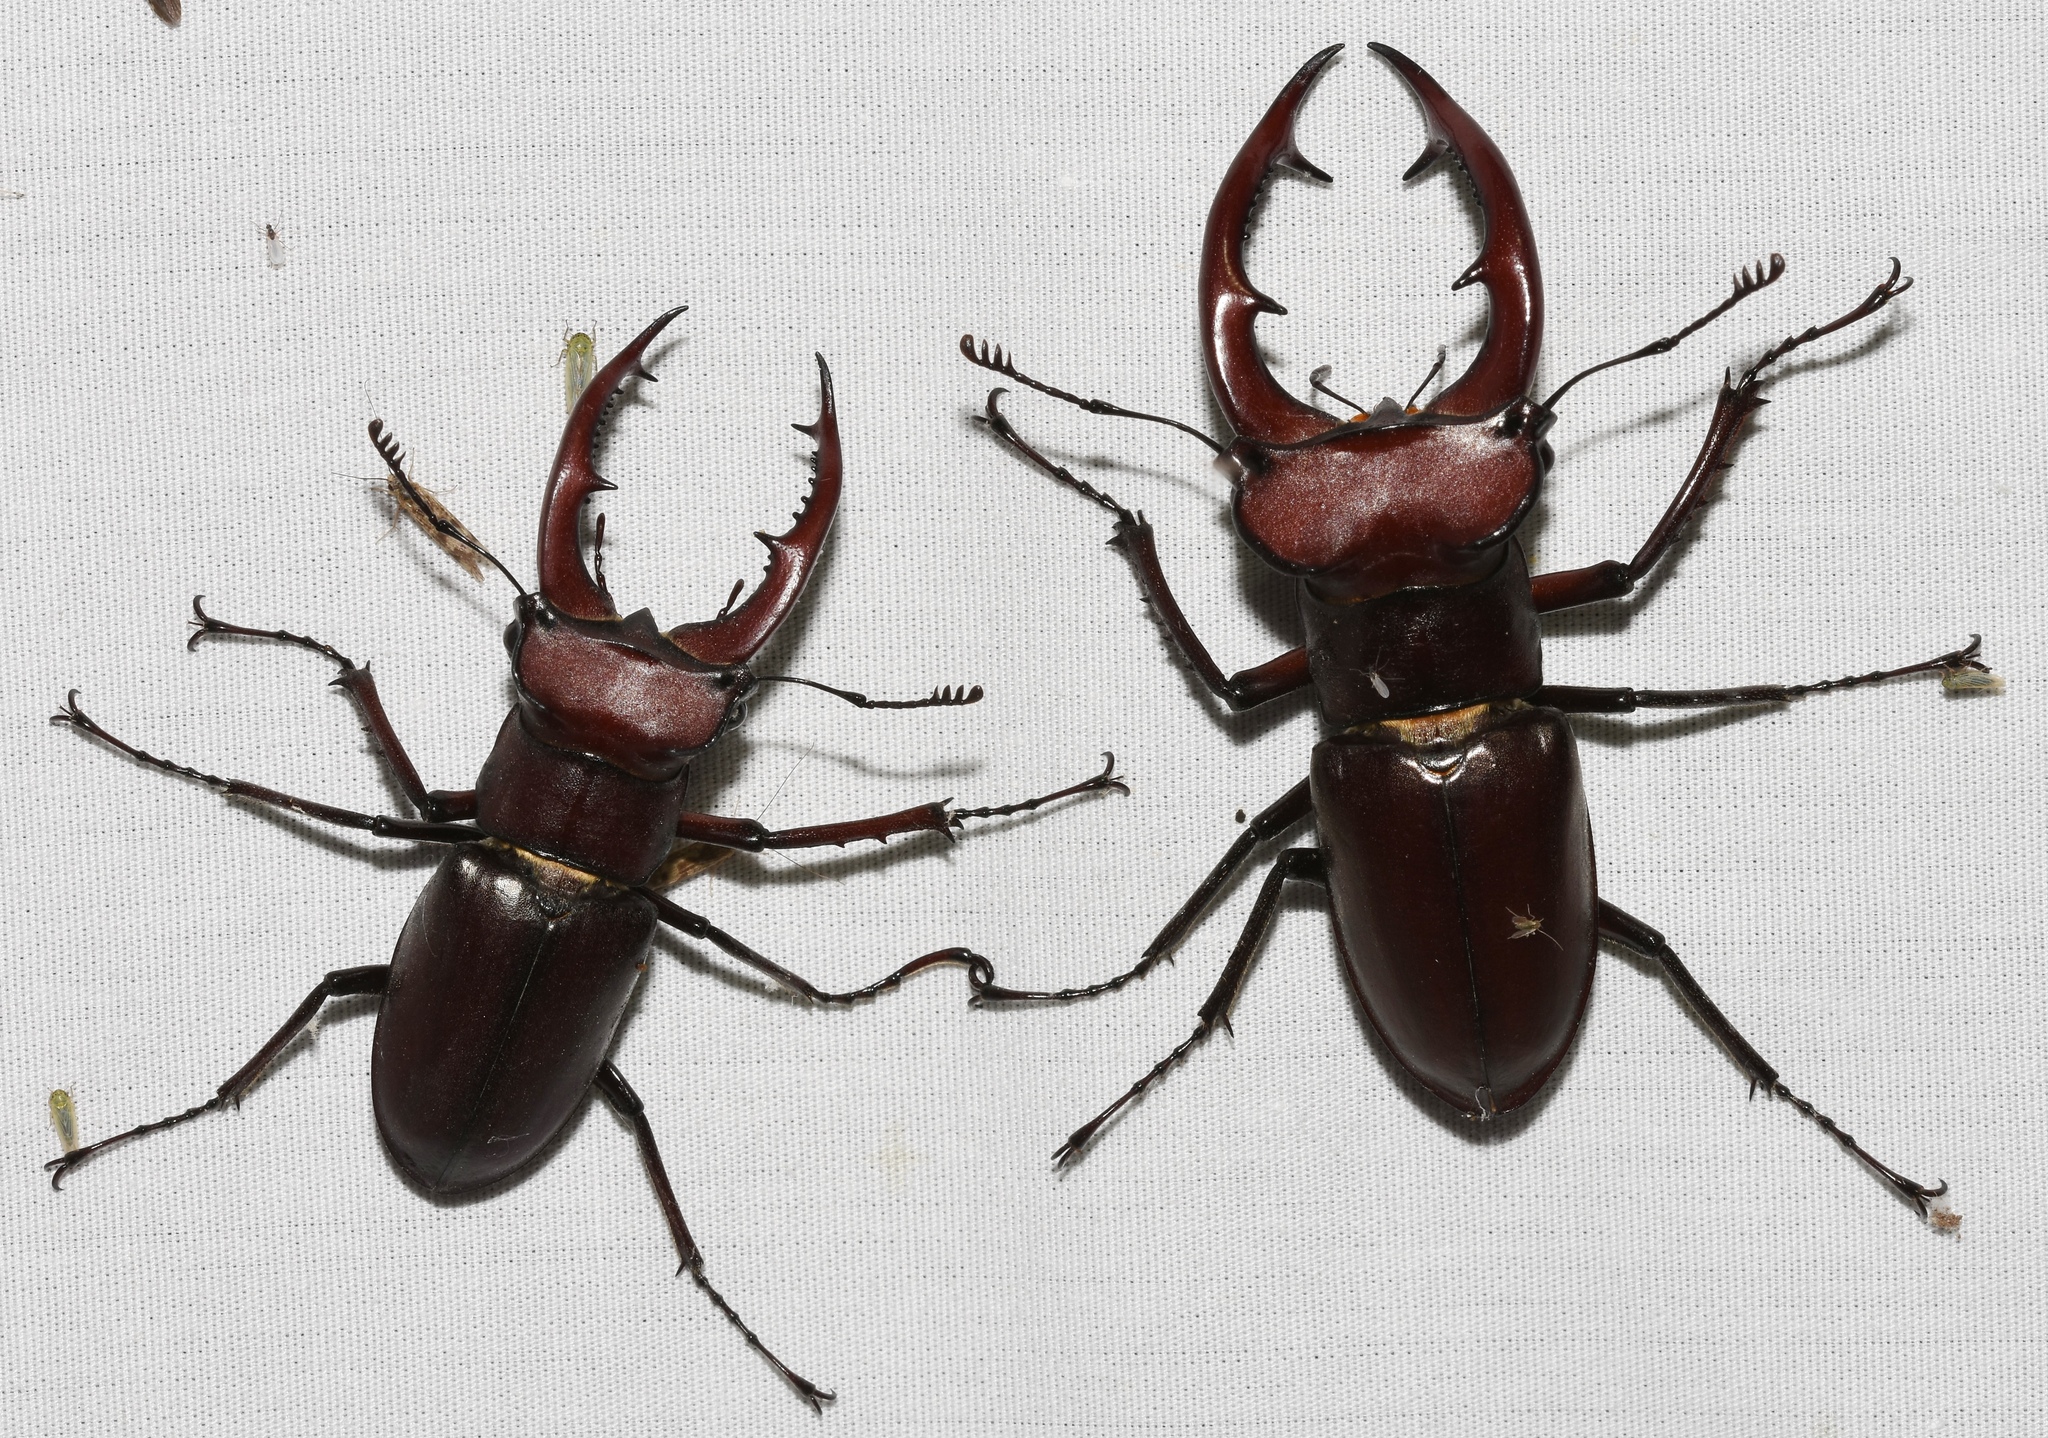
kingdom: Animalia
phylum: Arthropoda
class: Insecta
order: Coleoptera
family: Lucanidae
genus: Lucanus
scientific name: Lucanus elaphus
